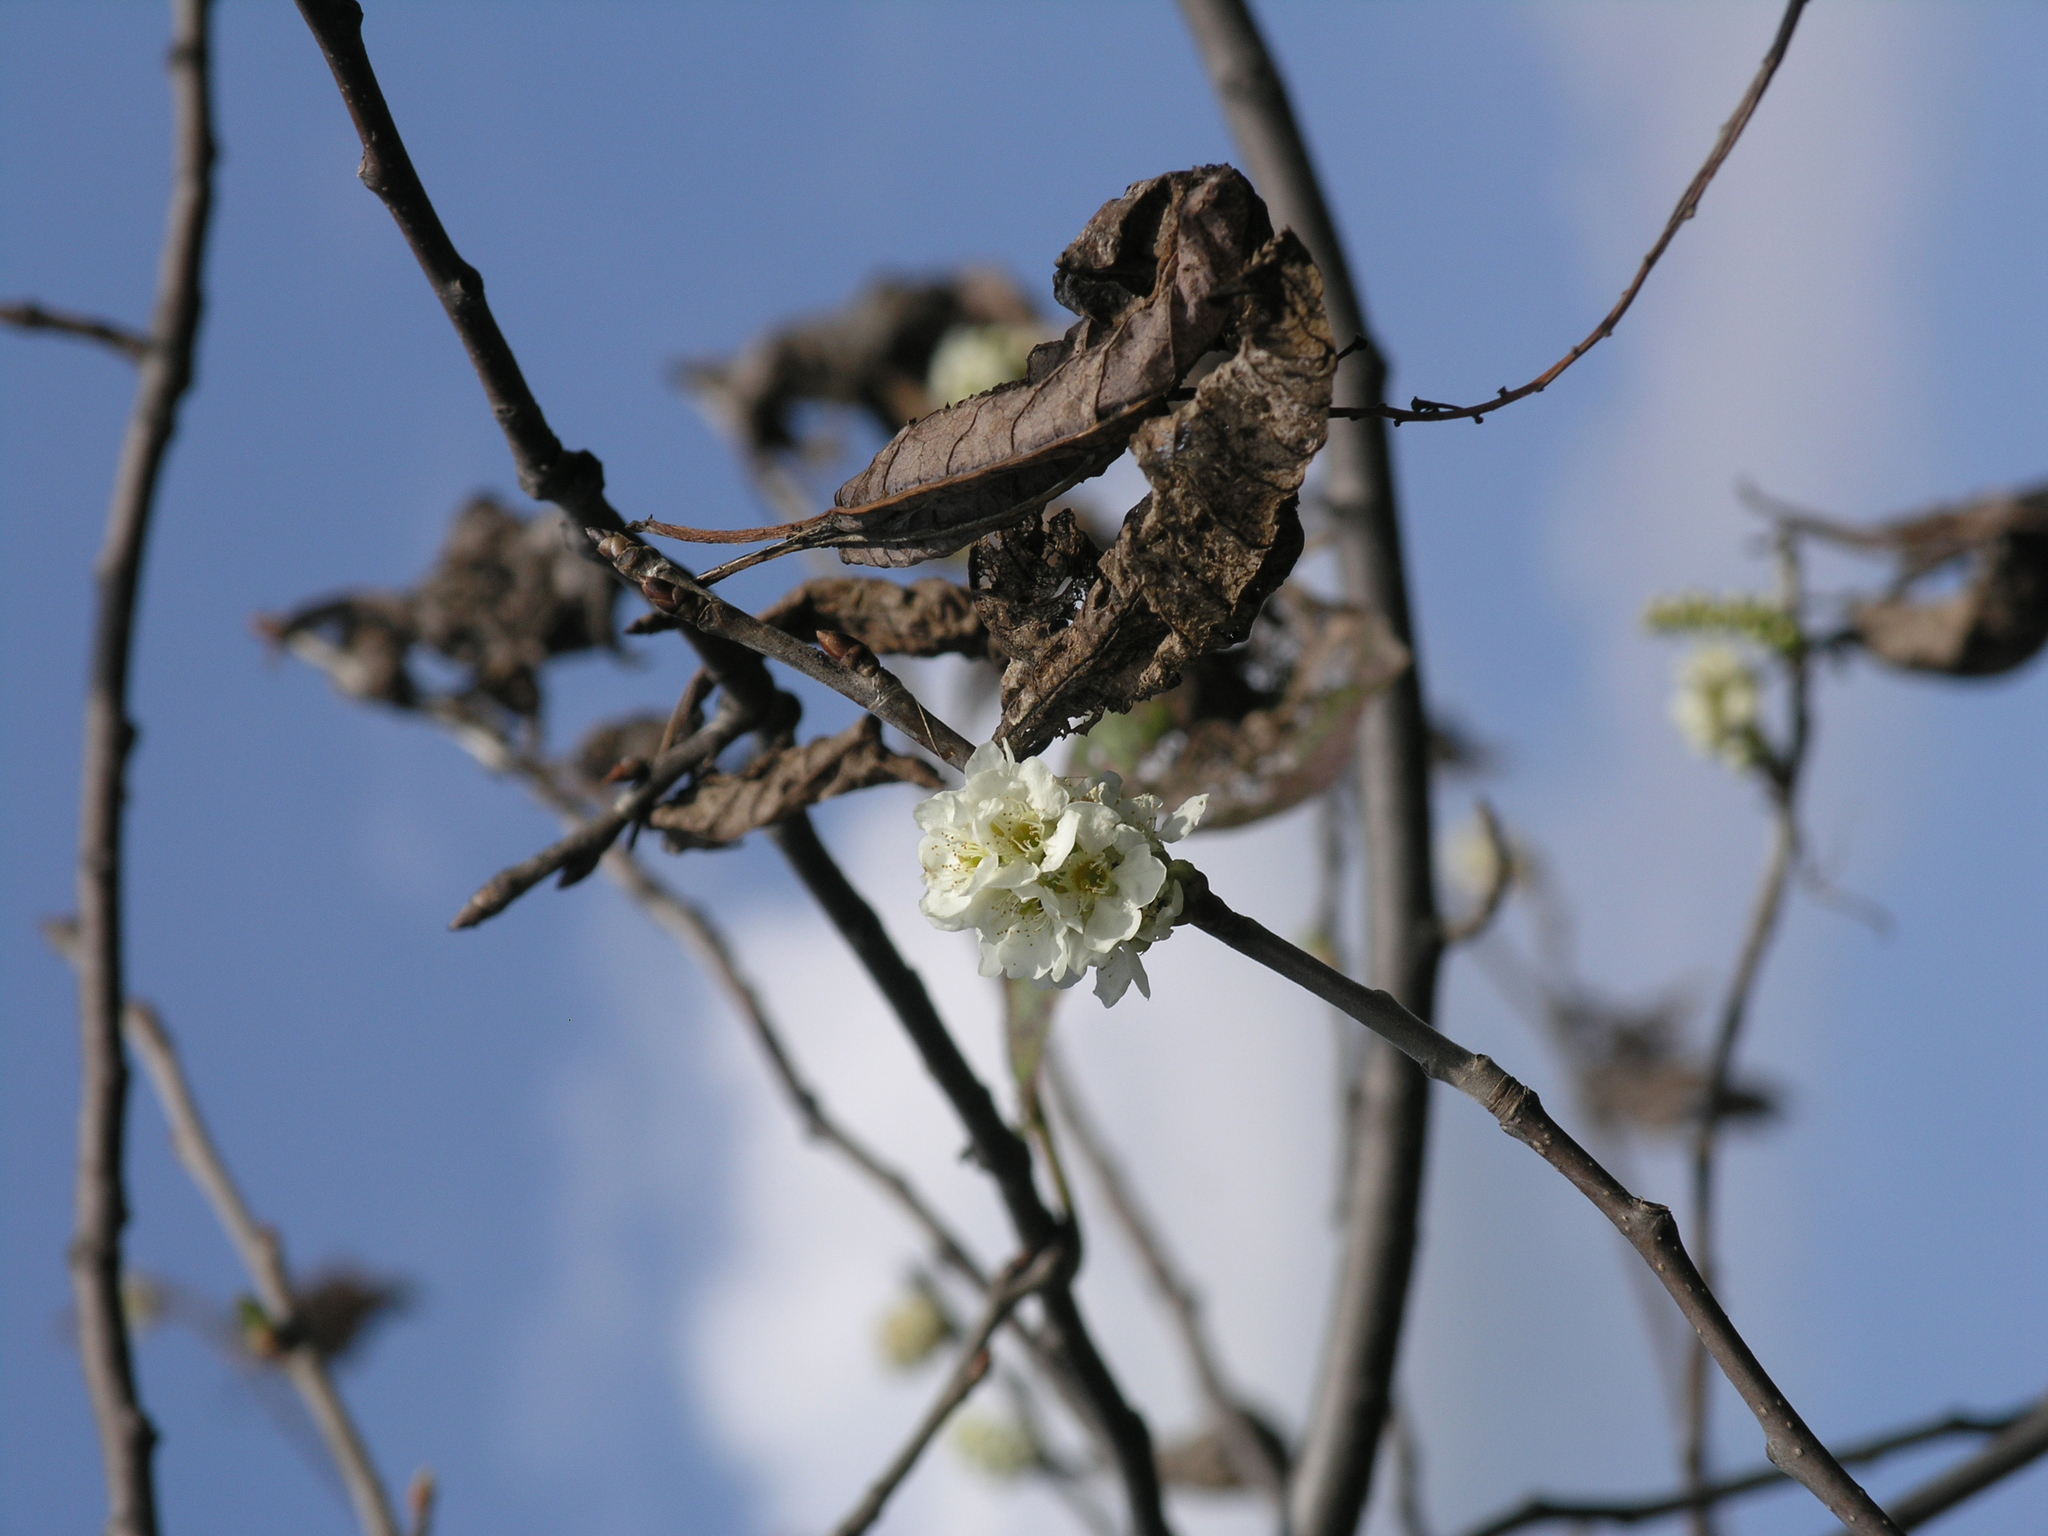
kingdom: Plantae
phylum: Tracheophyta
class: Magnoliopsida
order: Rosales
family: Rosaceae
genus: Prunus
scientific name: Prunus padus
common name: Bird cherry
